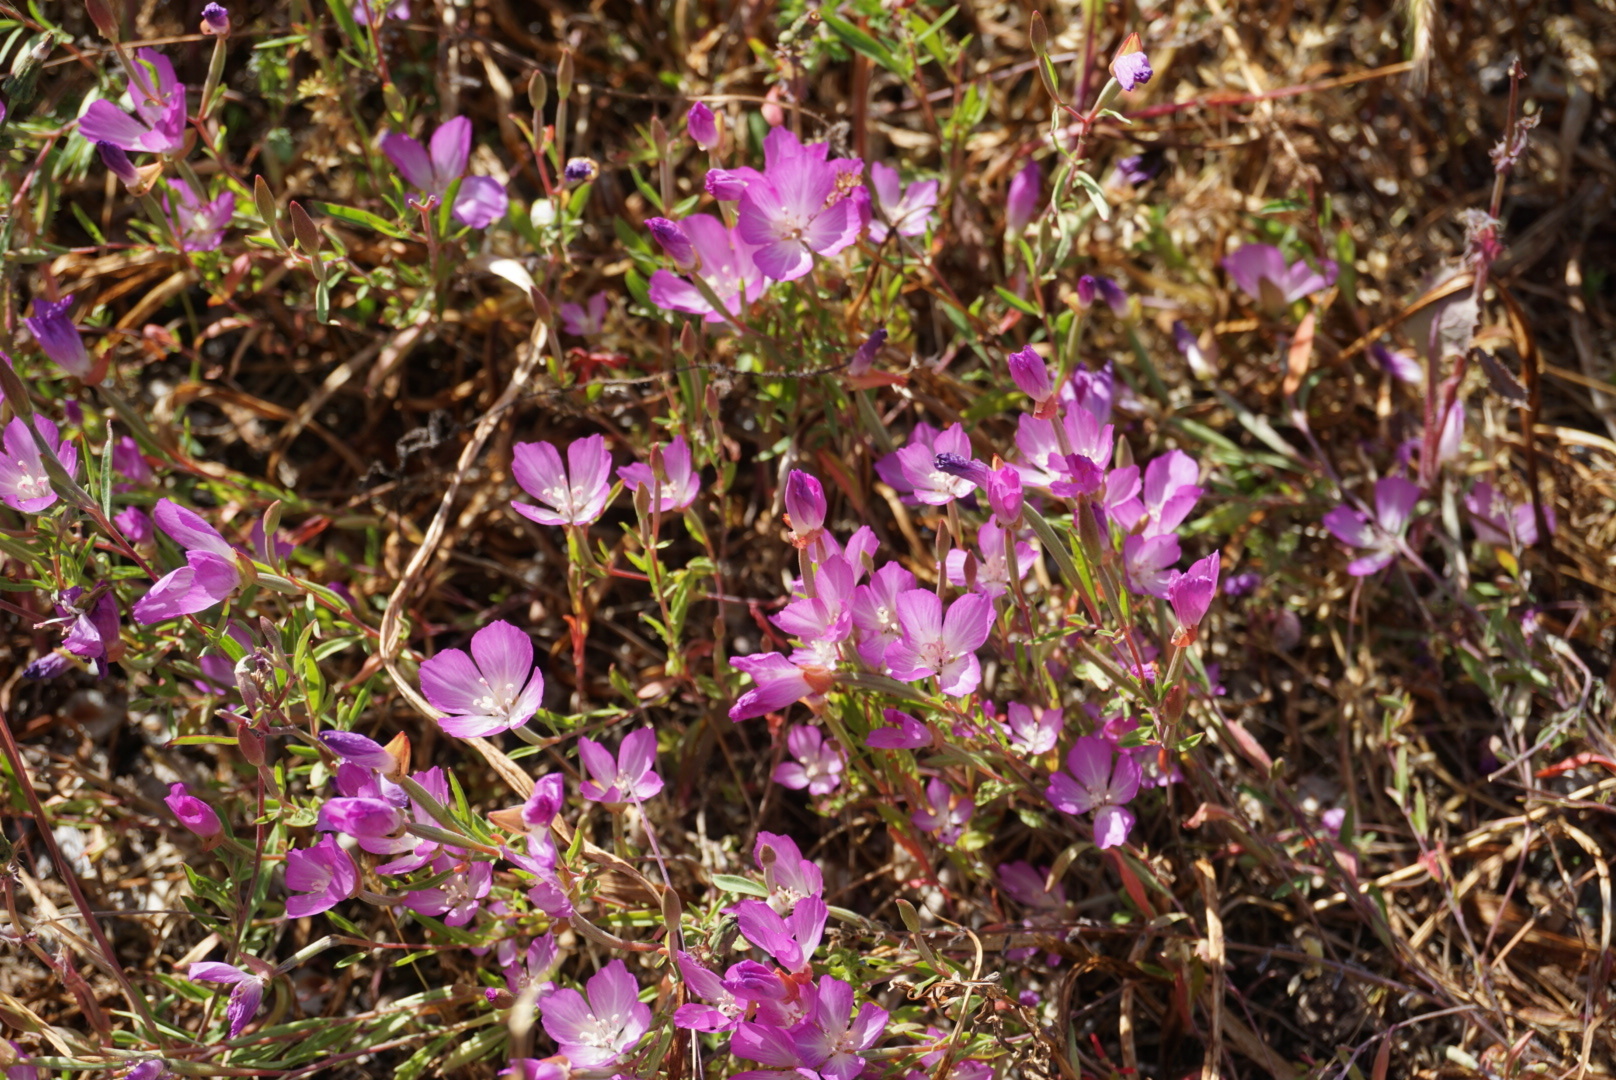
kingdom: Plantae
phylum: Tracheophyta
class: Magnoliopsida
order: Myrtales
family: Onagraceae
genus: Clarkia
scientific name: Clarkia amoena
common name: Godetia
